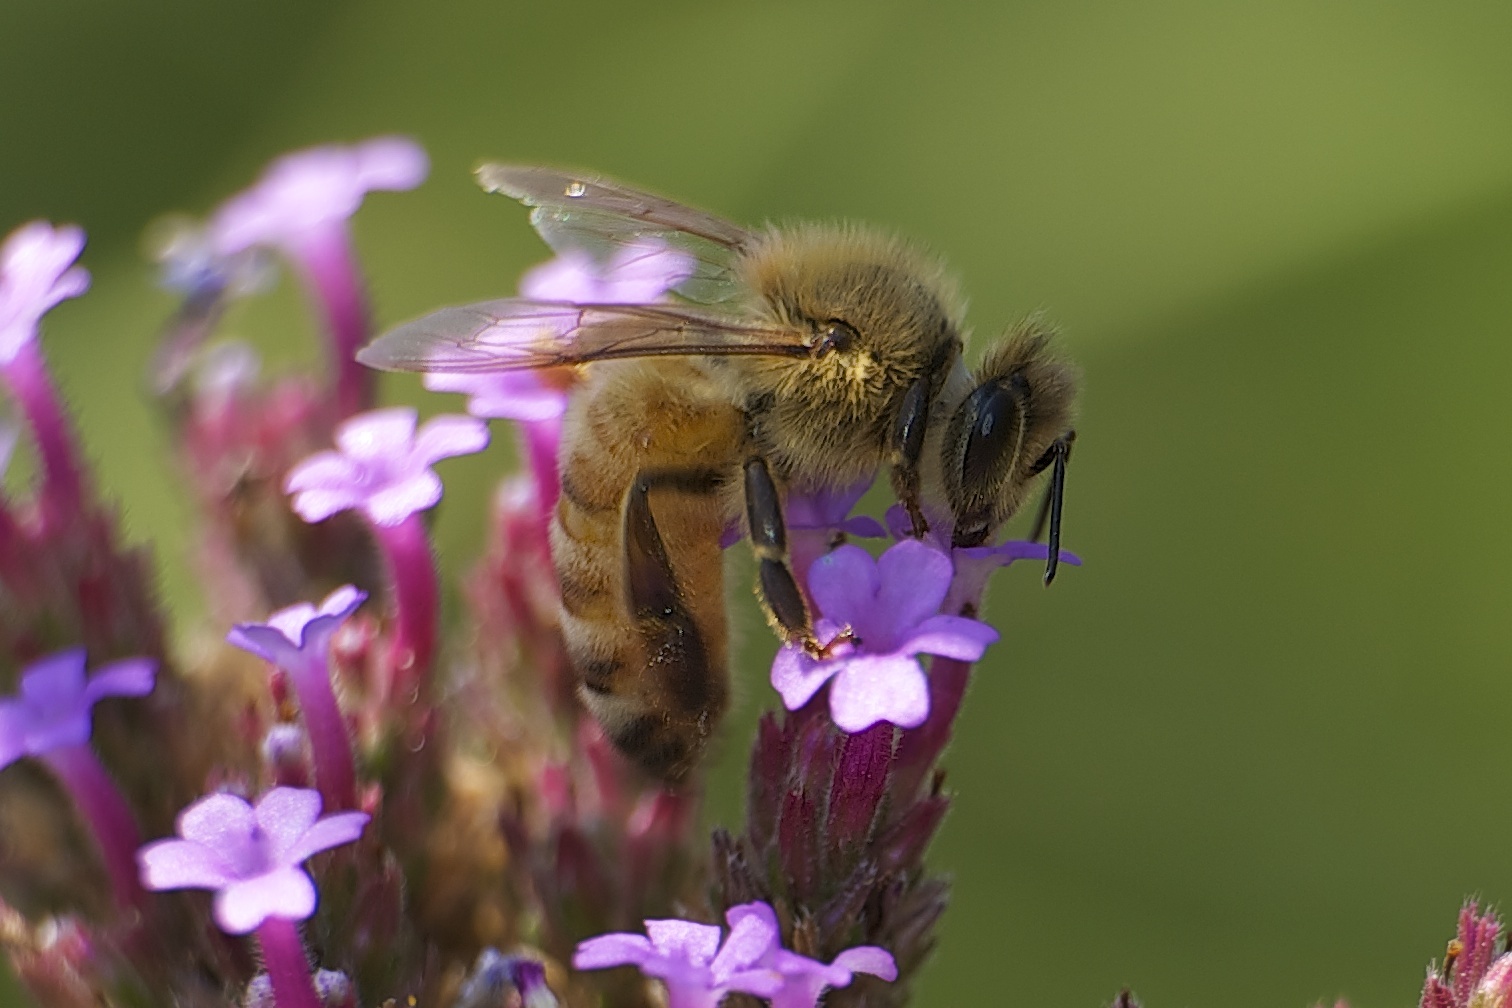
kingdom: Animalia
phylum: Arthropoda
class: Insecta
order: Hymenoptera
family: Apidae
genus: Apis
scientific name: Apis mellifera
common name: Honey bee
